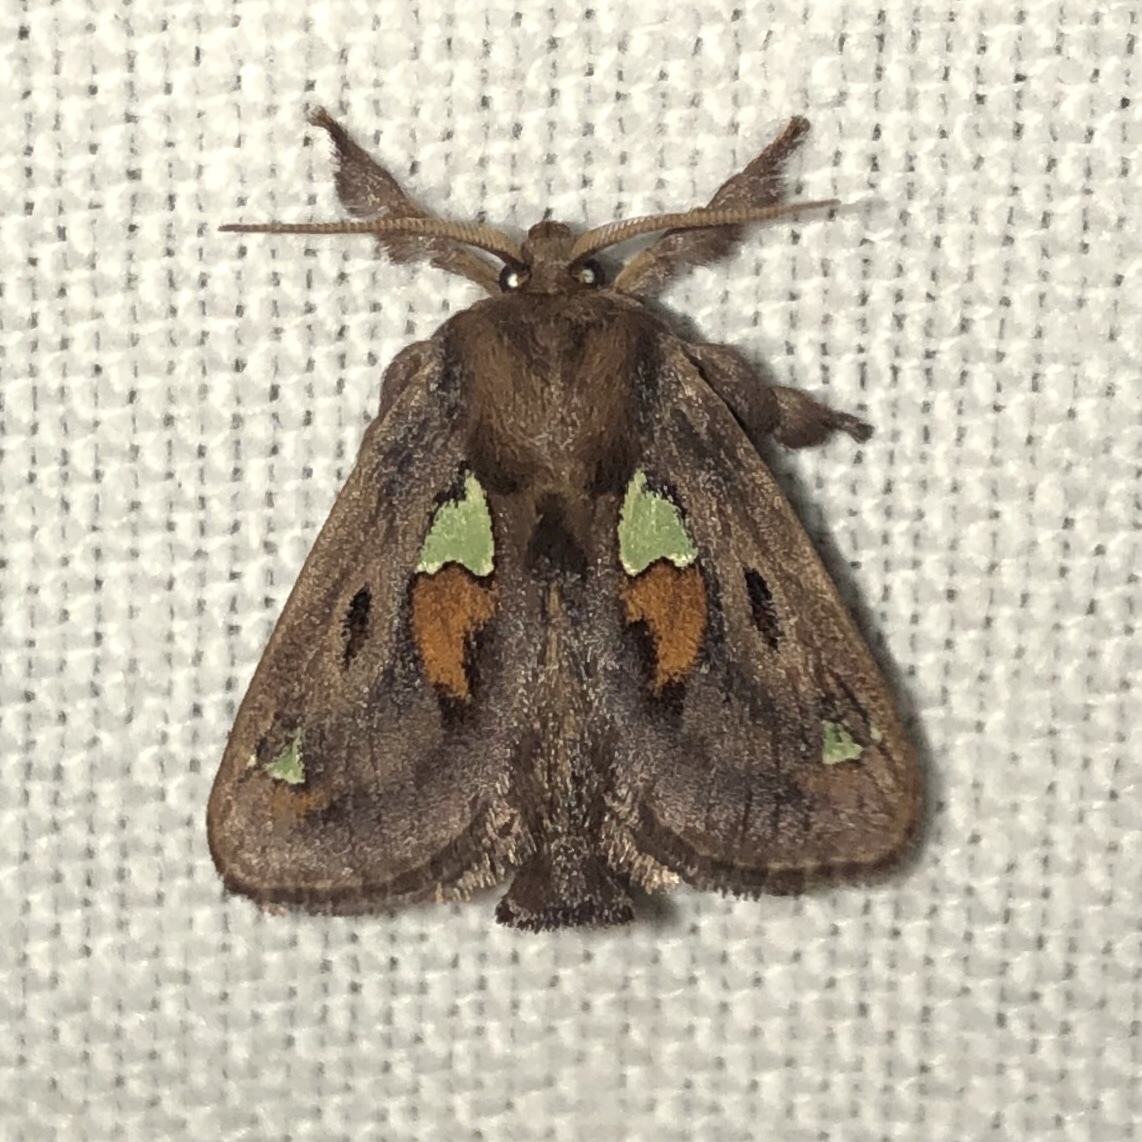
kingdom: Animalia
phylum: Arthropoda
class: Insecta
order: Lepidoptera
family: Limacodidae
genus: Euclea
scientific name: Euclea delphinii
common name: Spiny oak-slug moth
